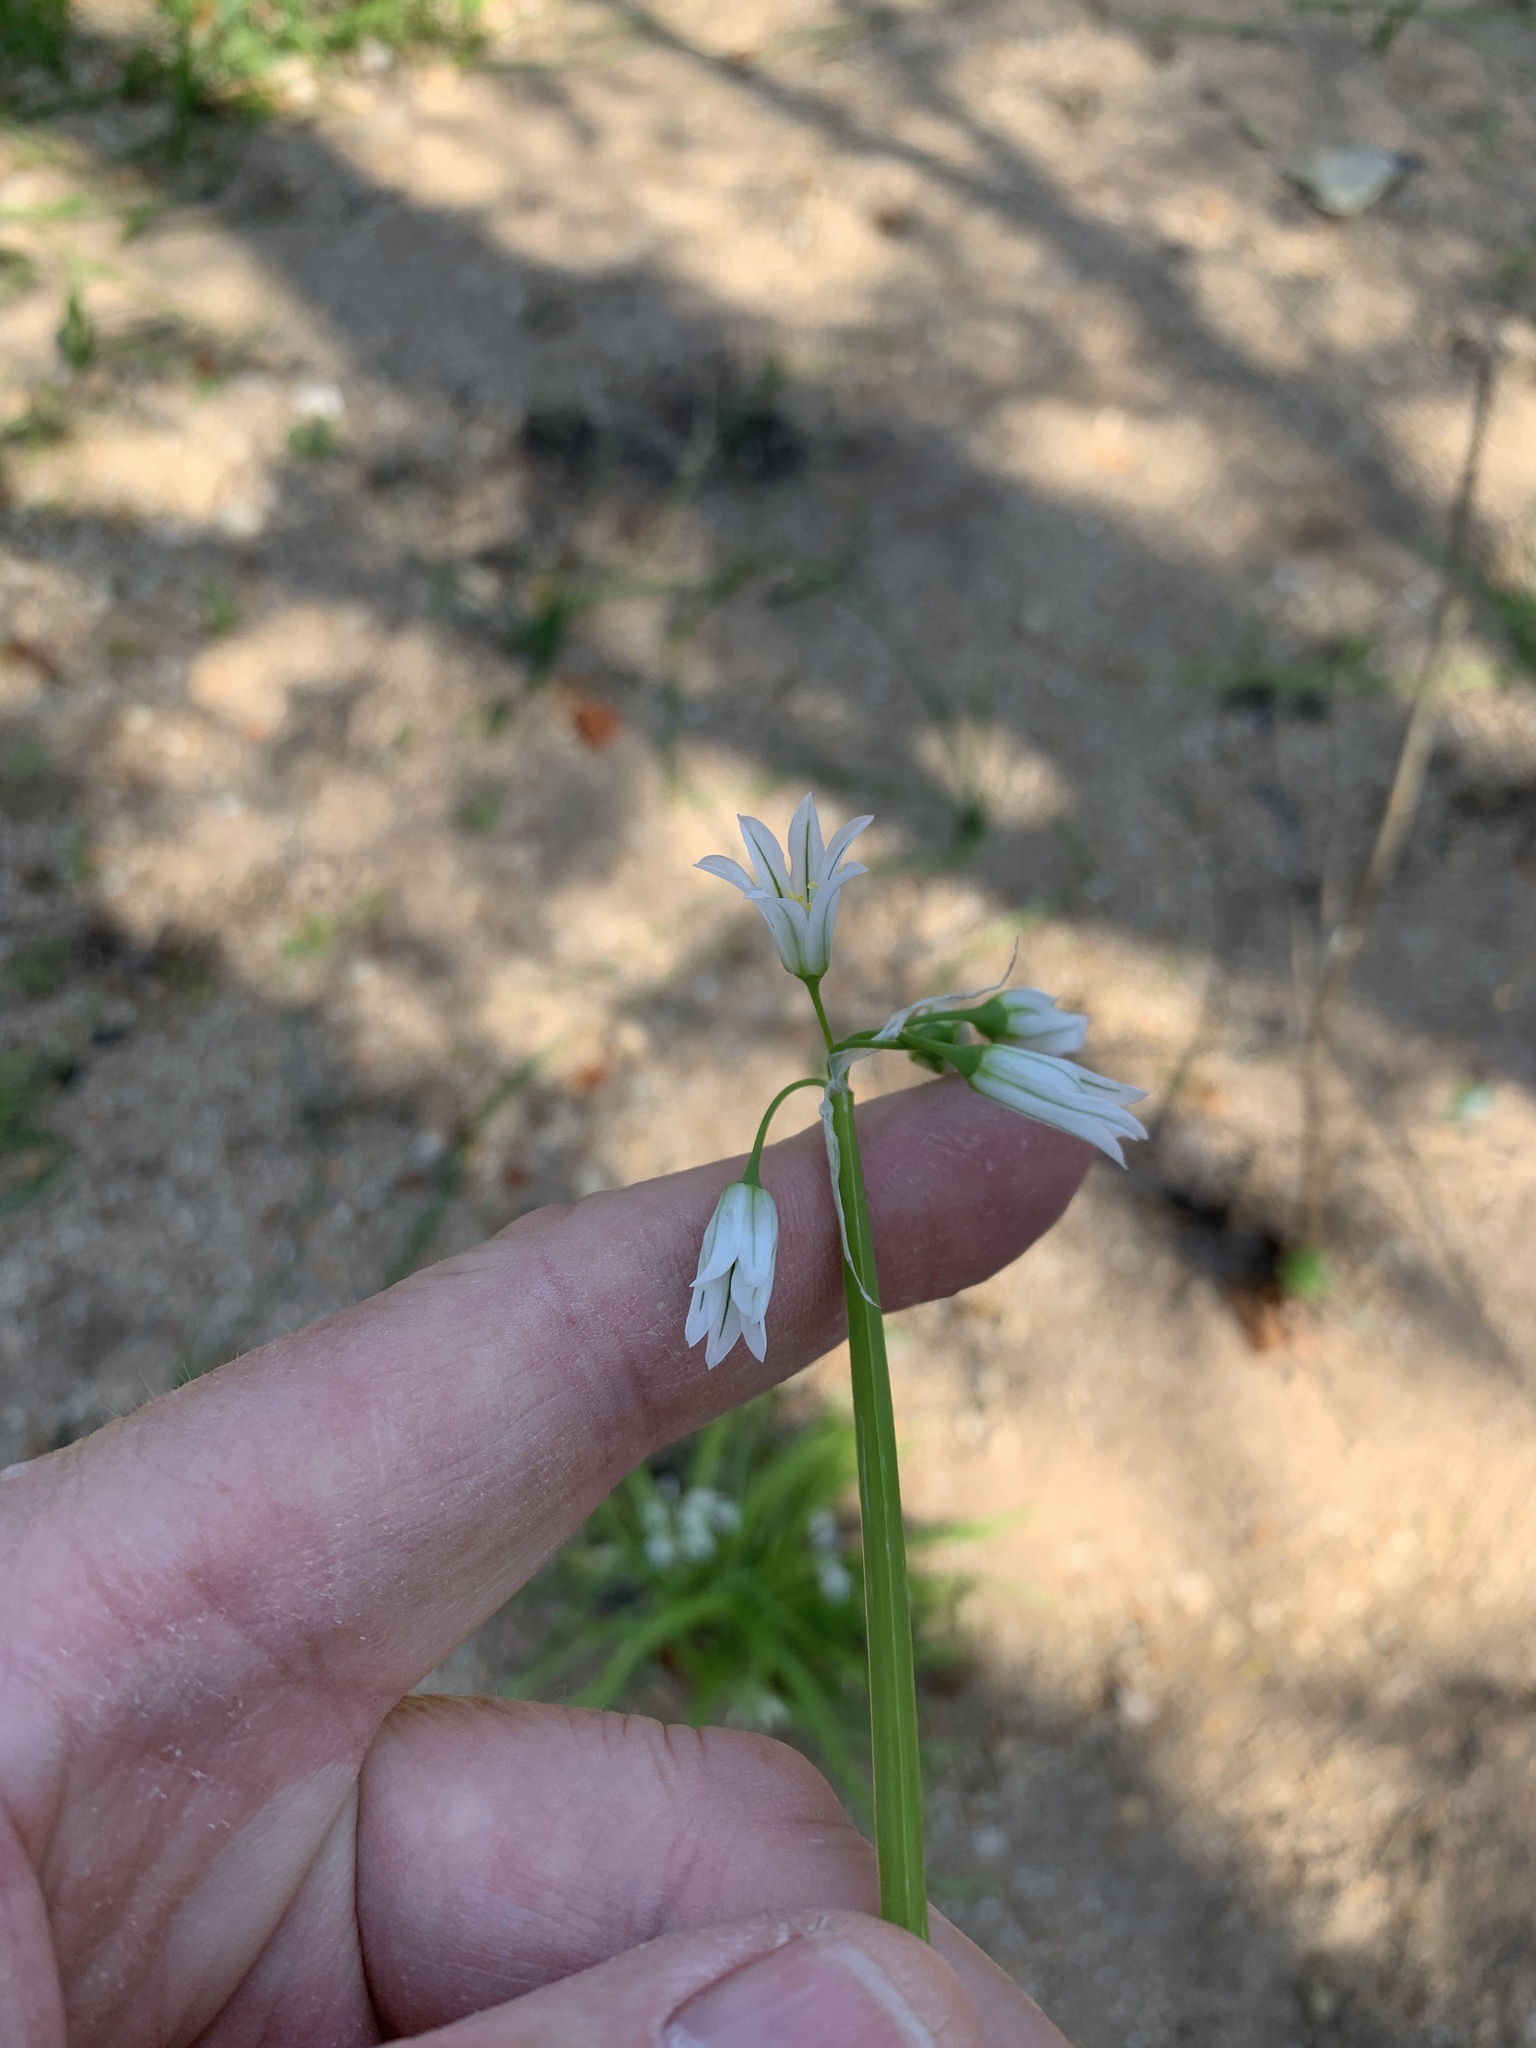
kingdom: Plantae
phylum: Tracheophyta
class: Liliopsida
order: Asparagales
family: Amaryllidaceae
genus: Allium
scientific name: Allium triquetrum
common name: Three-cornered garlic
